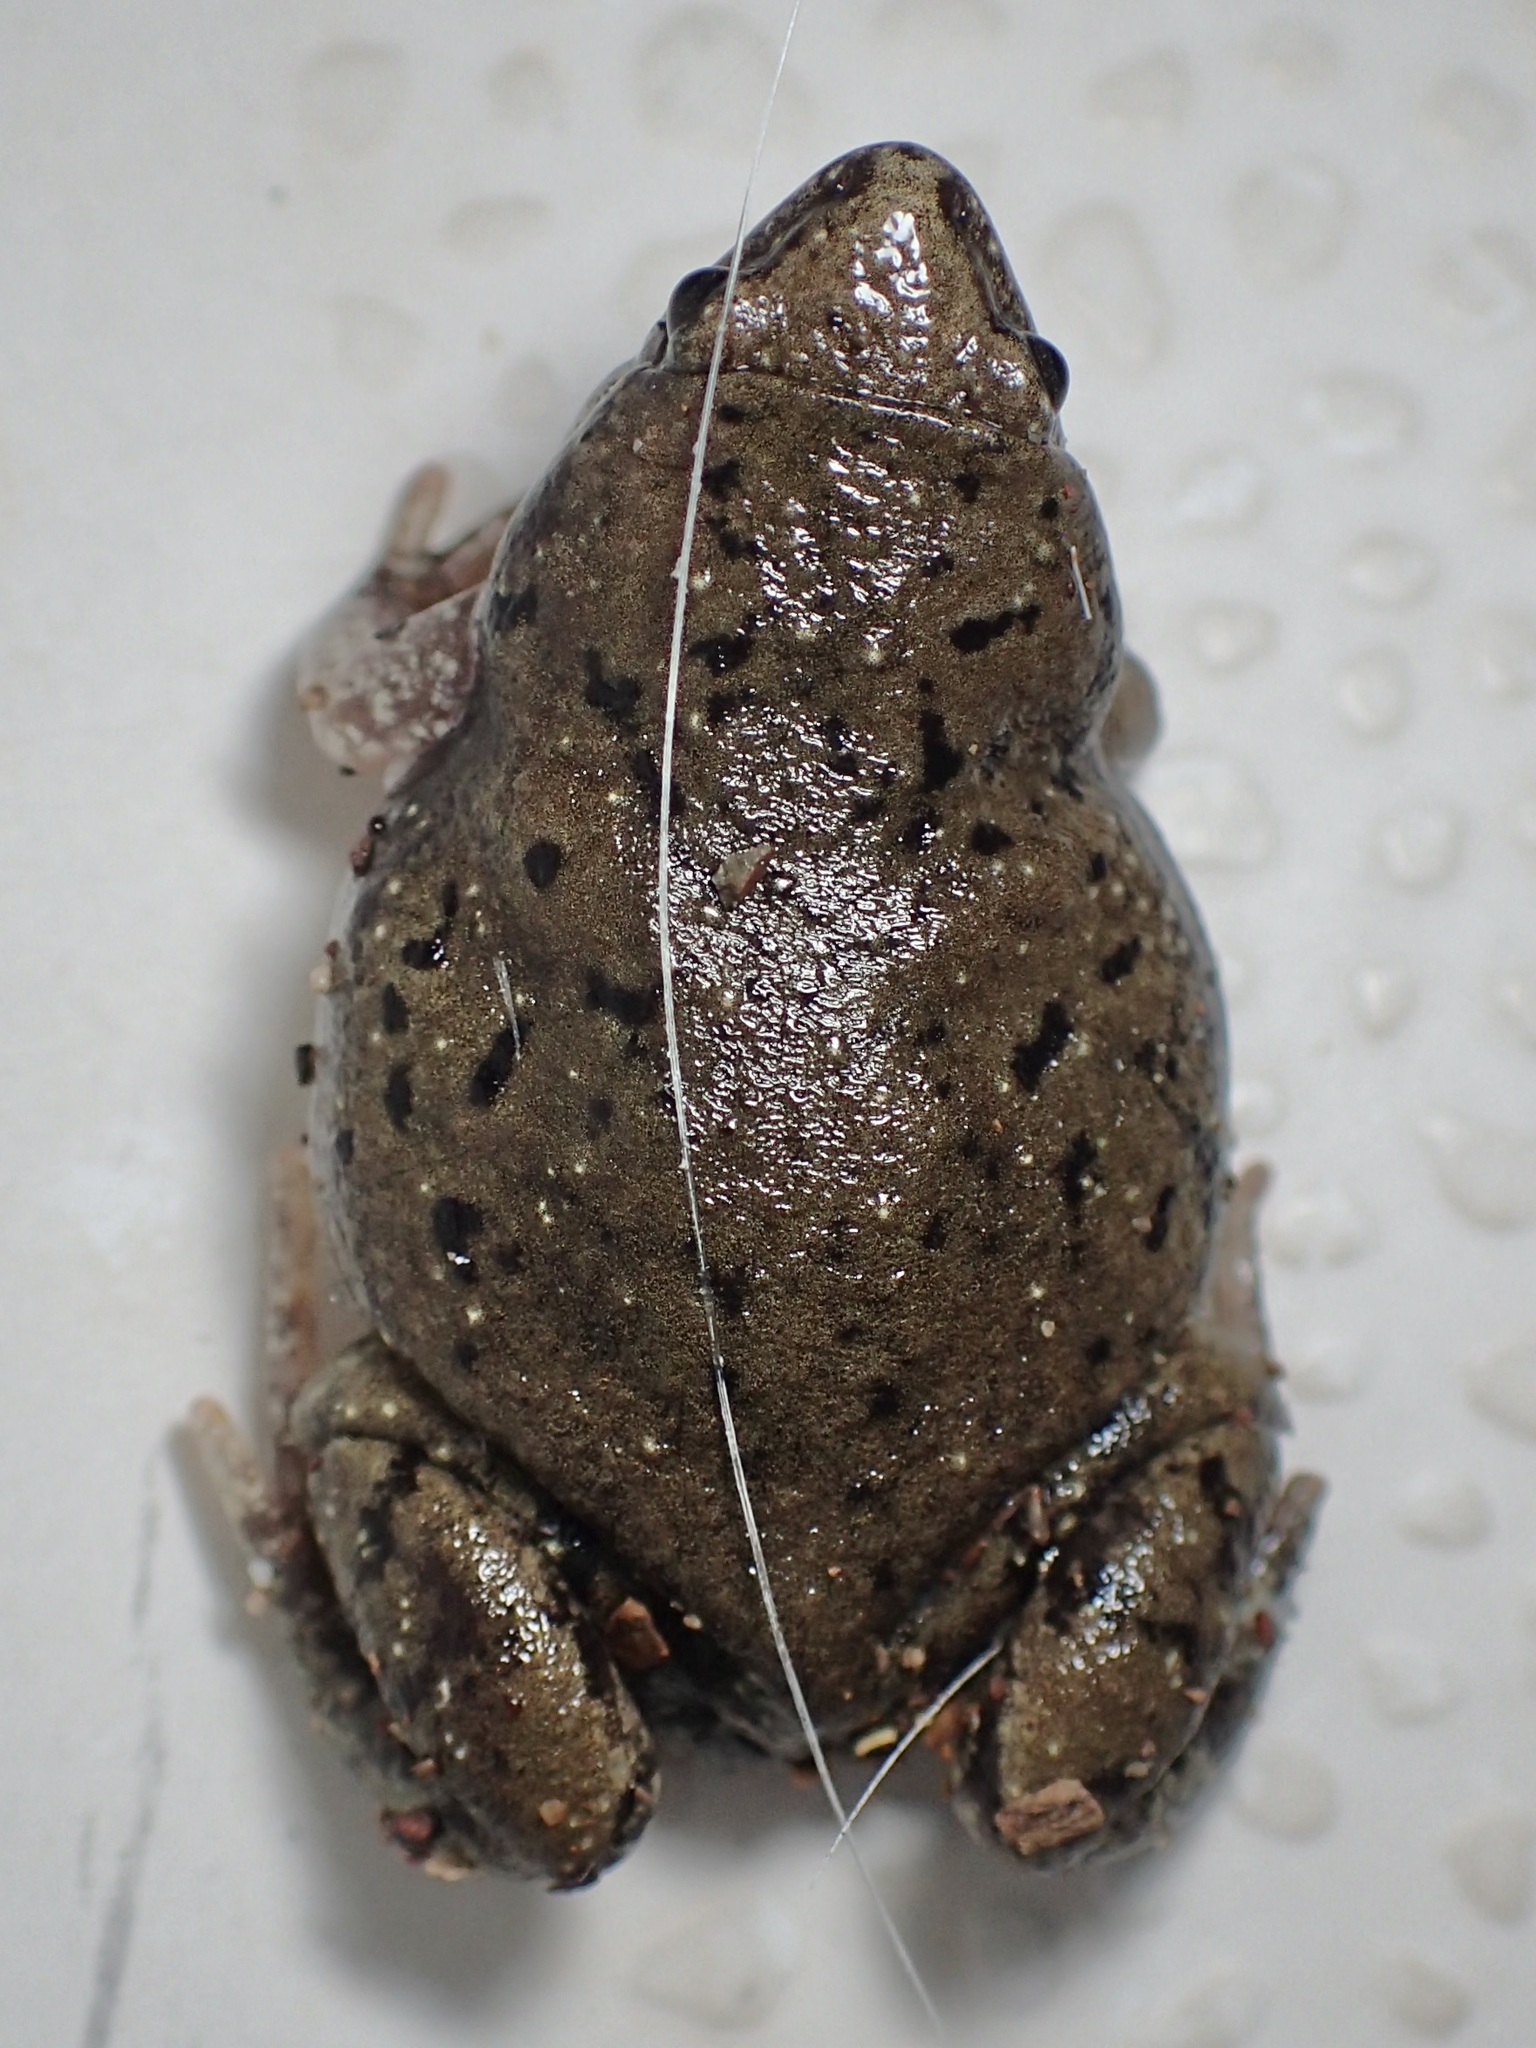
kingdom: Animalia
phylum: Chordata
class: Amphibia
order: Anura
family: Microhylidae
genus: Gastrophryne
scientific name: Gastrophryne mazatlanensis
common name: Sinaloan narrow-mouthed toad
